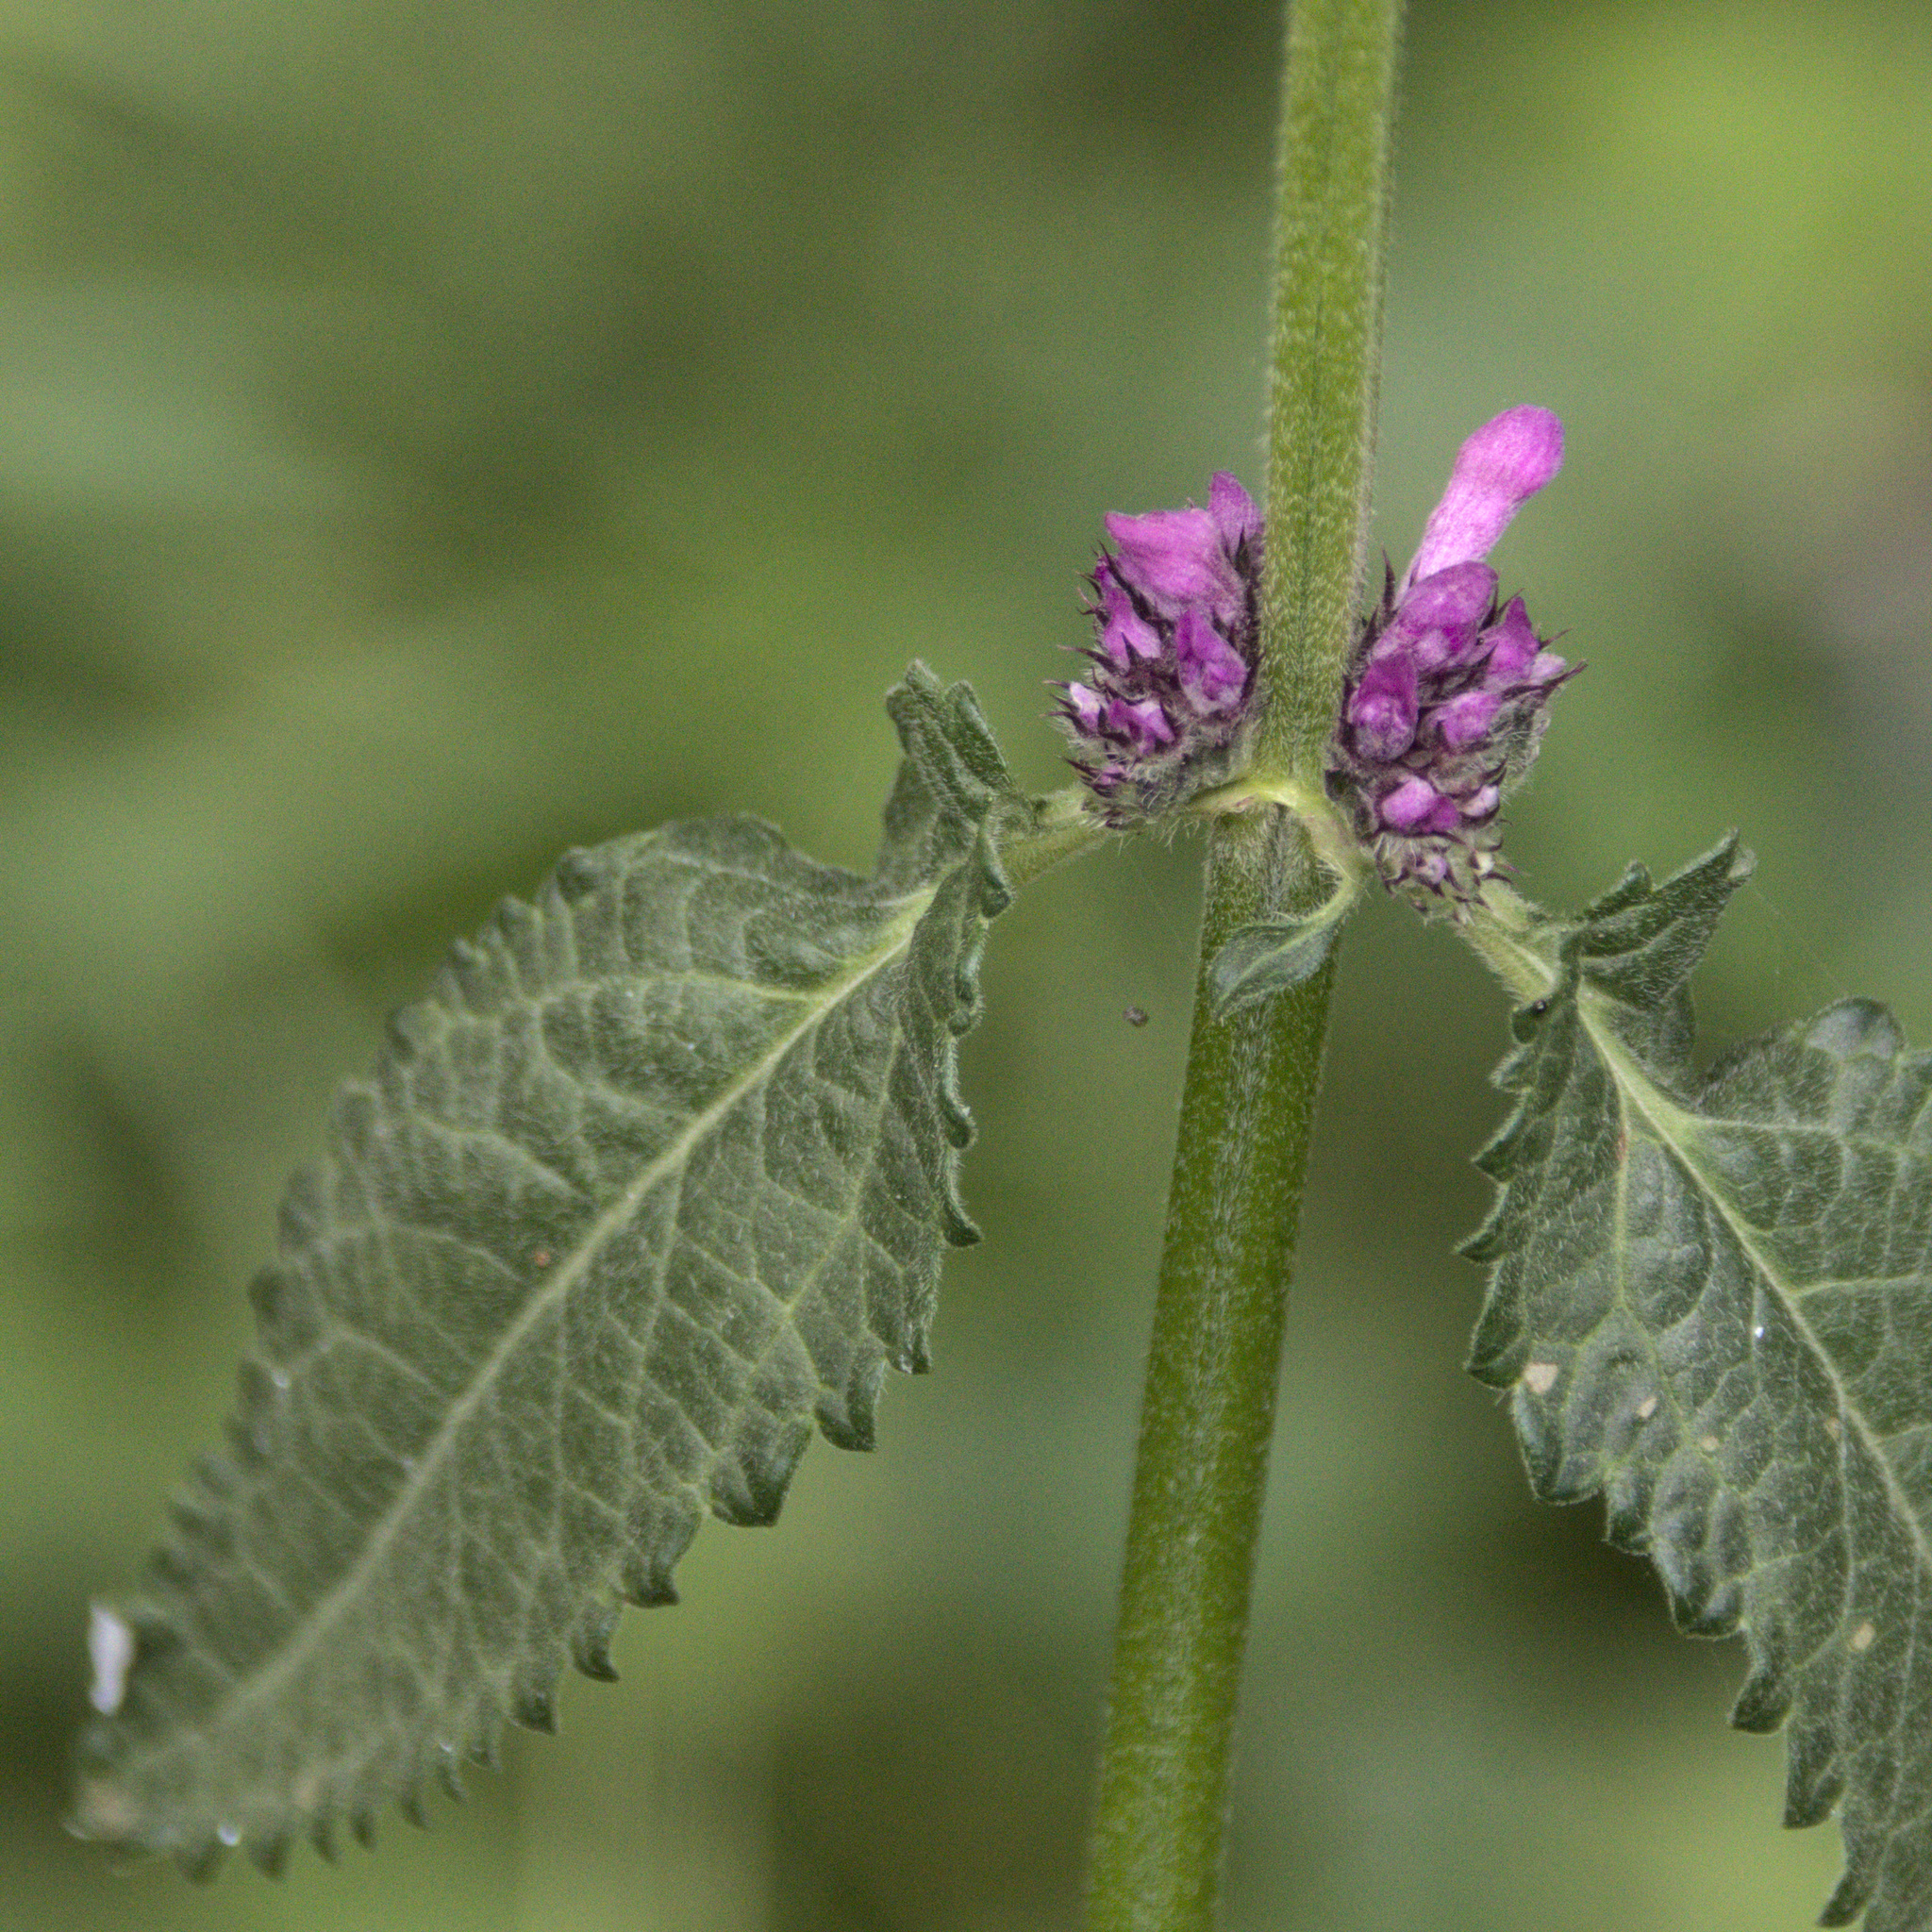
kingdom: Plantae
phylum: Tracheophyta
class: Magnoliopsida
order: Lamiales
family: Lamiaceae
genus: Betonica
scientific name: Betonica officinalis
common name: Bishop's-wort
